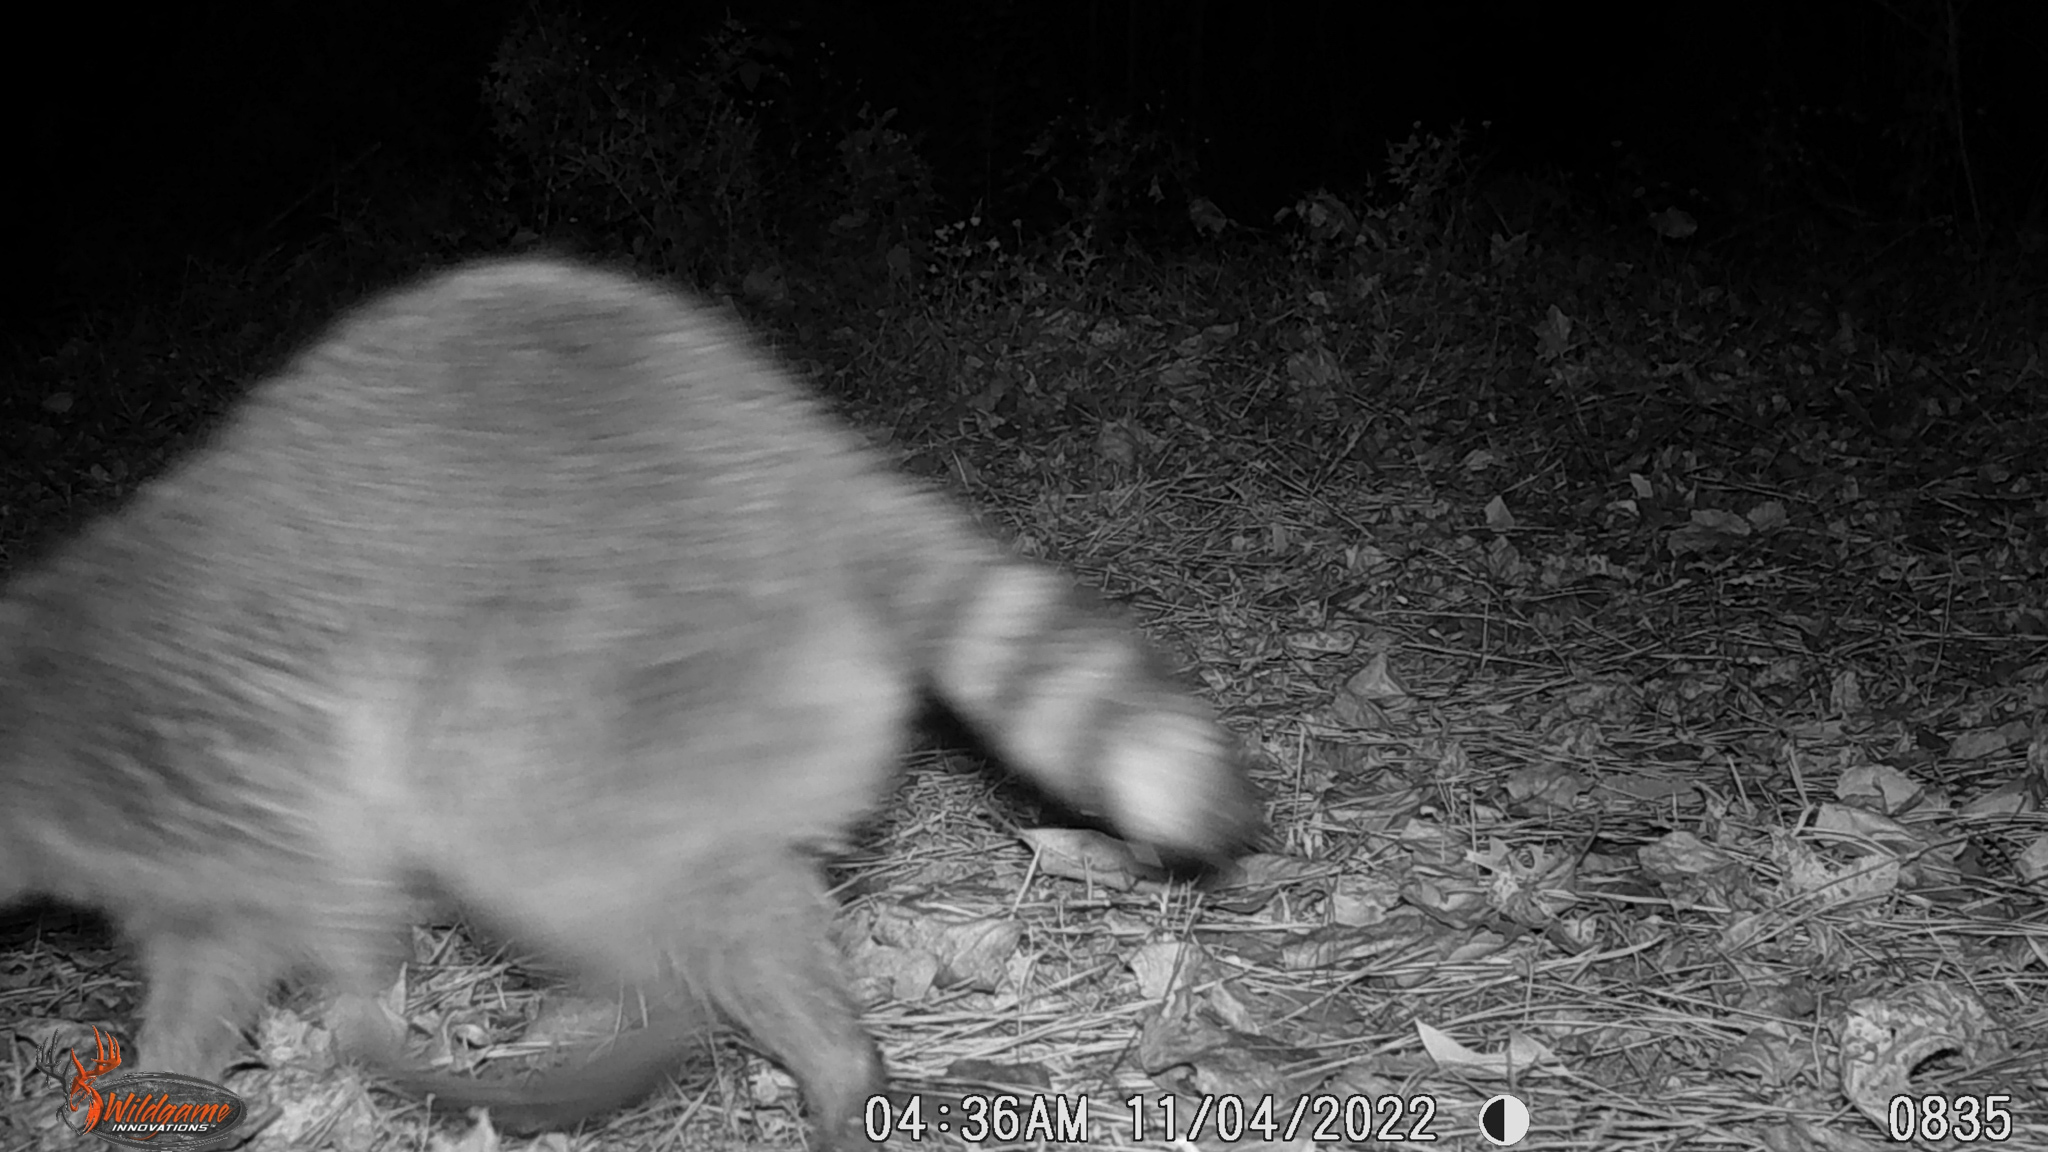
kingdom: Animalia
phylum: Chordata
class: Mammalia
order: Carnivora
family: Procyonidae
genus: Procyon
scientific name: Procyon lotor
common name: Raccoon
